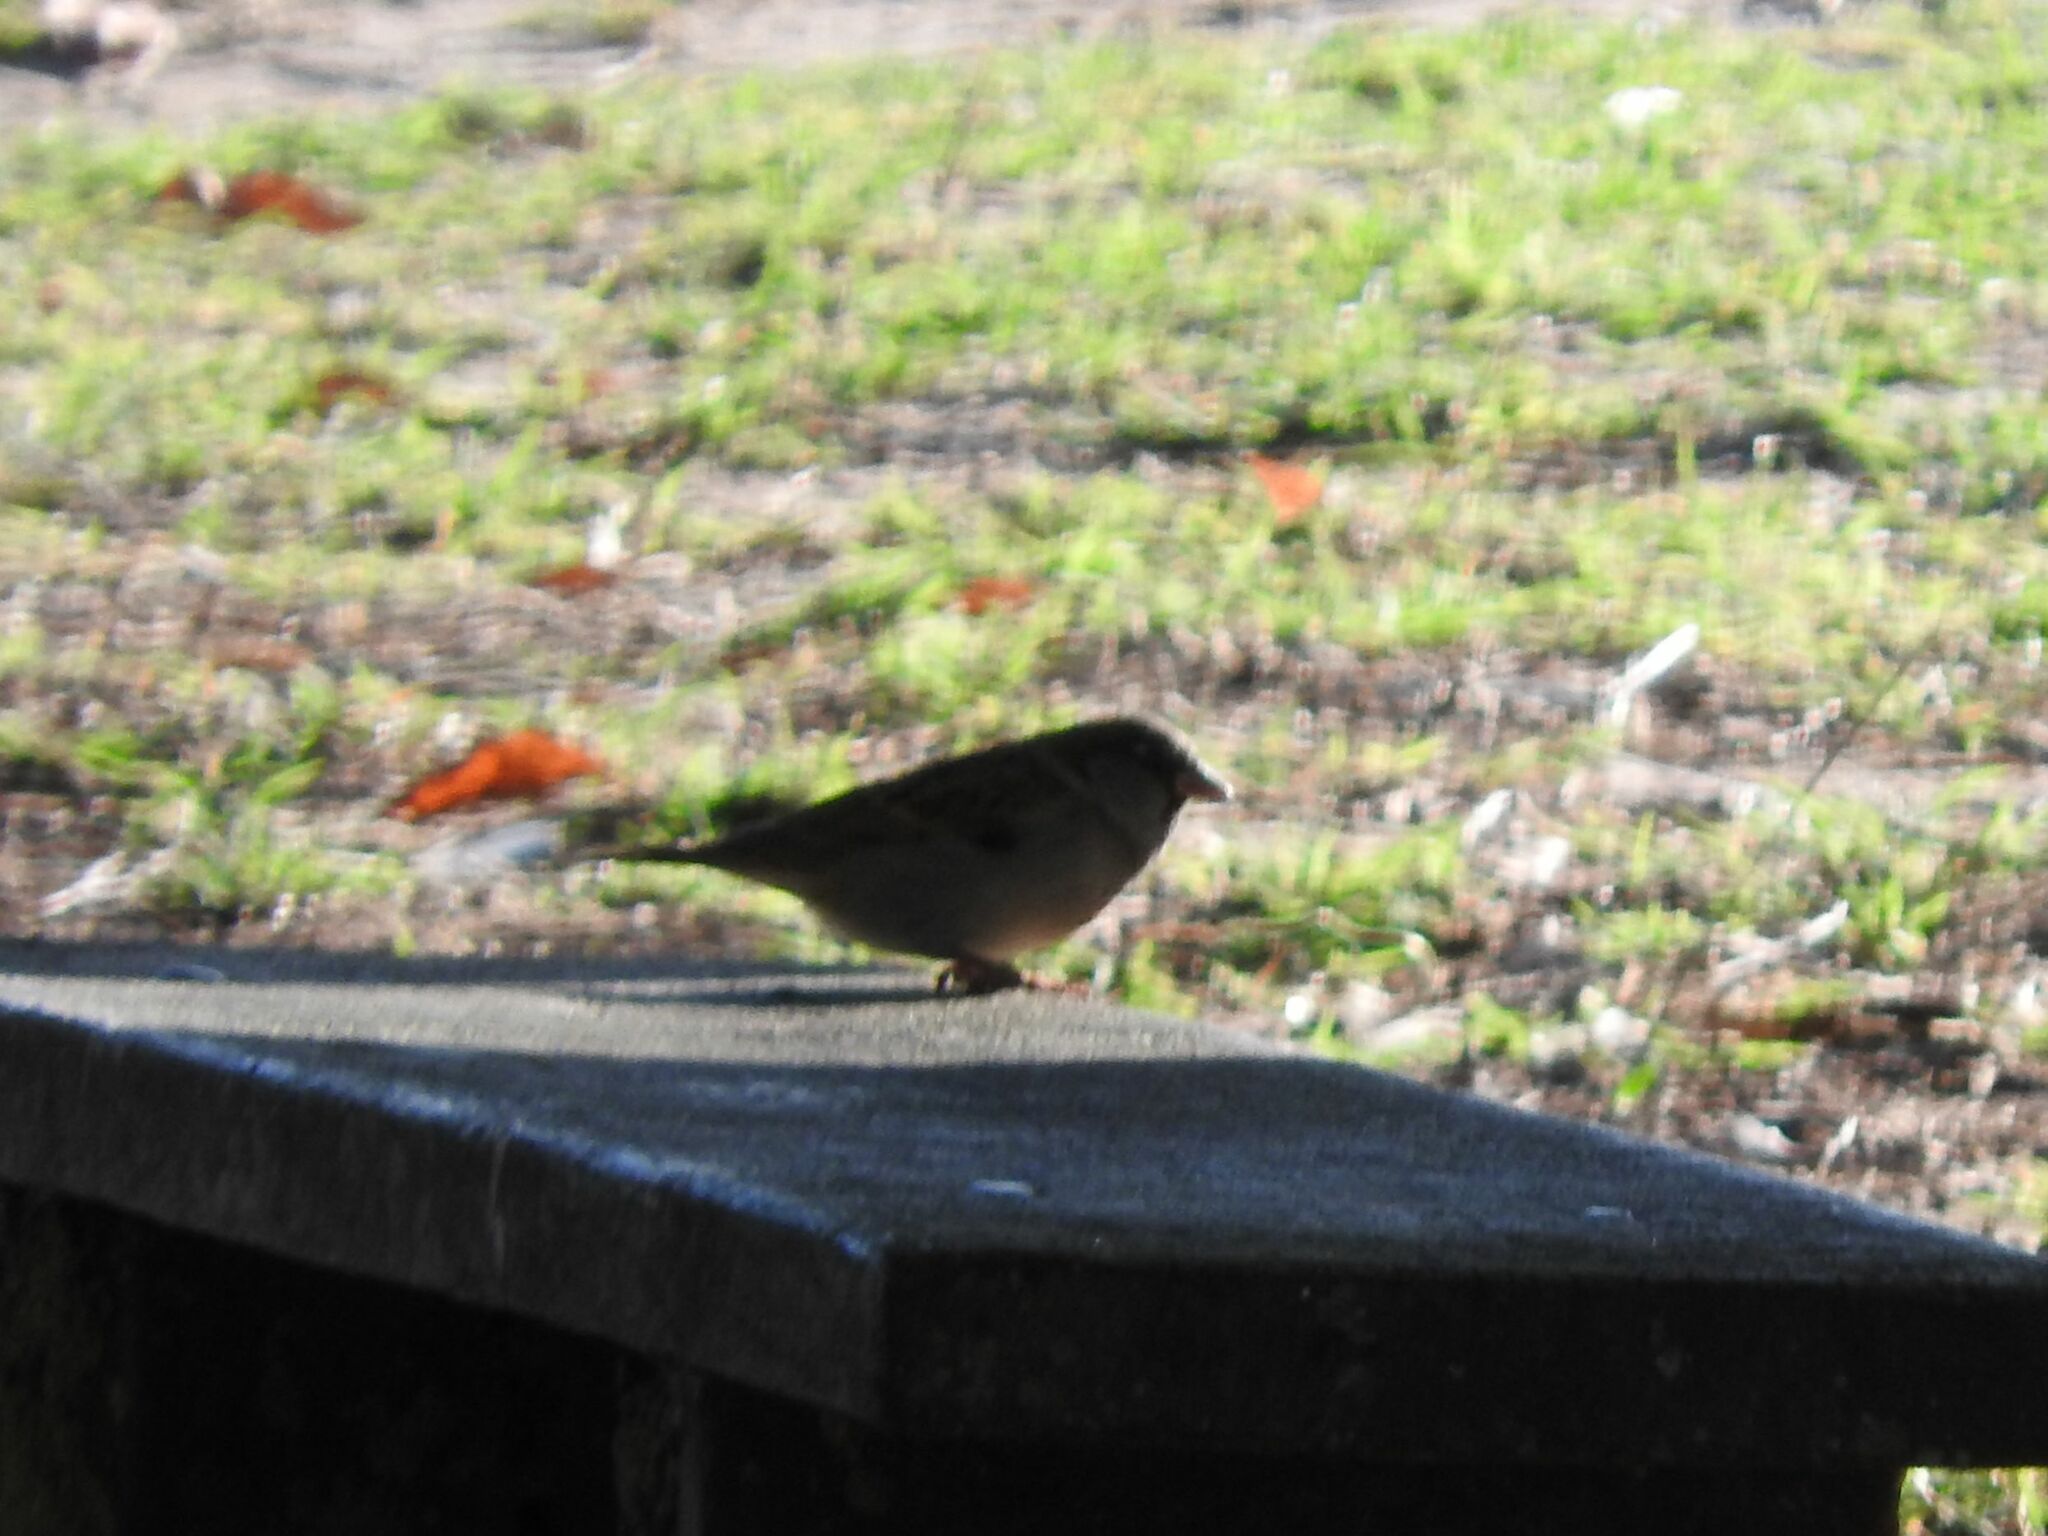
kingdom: Animalia
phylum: Chordata
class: Aves
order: Passeriformes
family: Passeridae
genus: Passer
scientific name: Passer domesticus
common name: House sparrow
